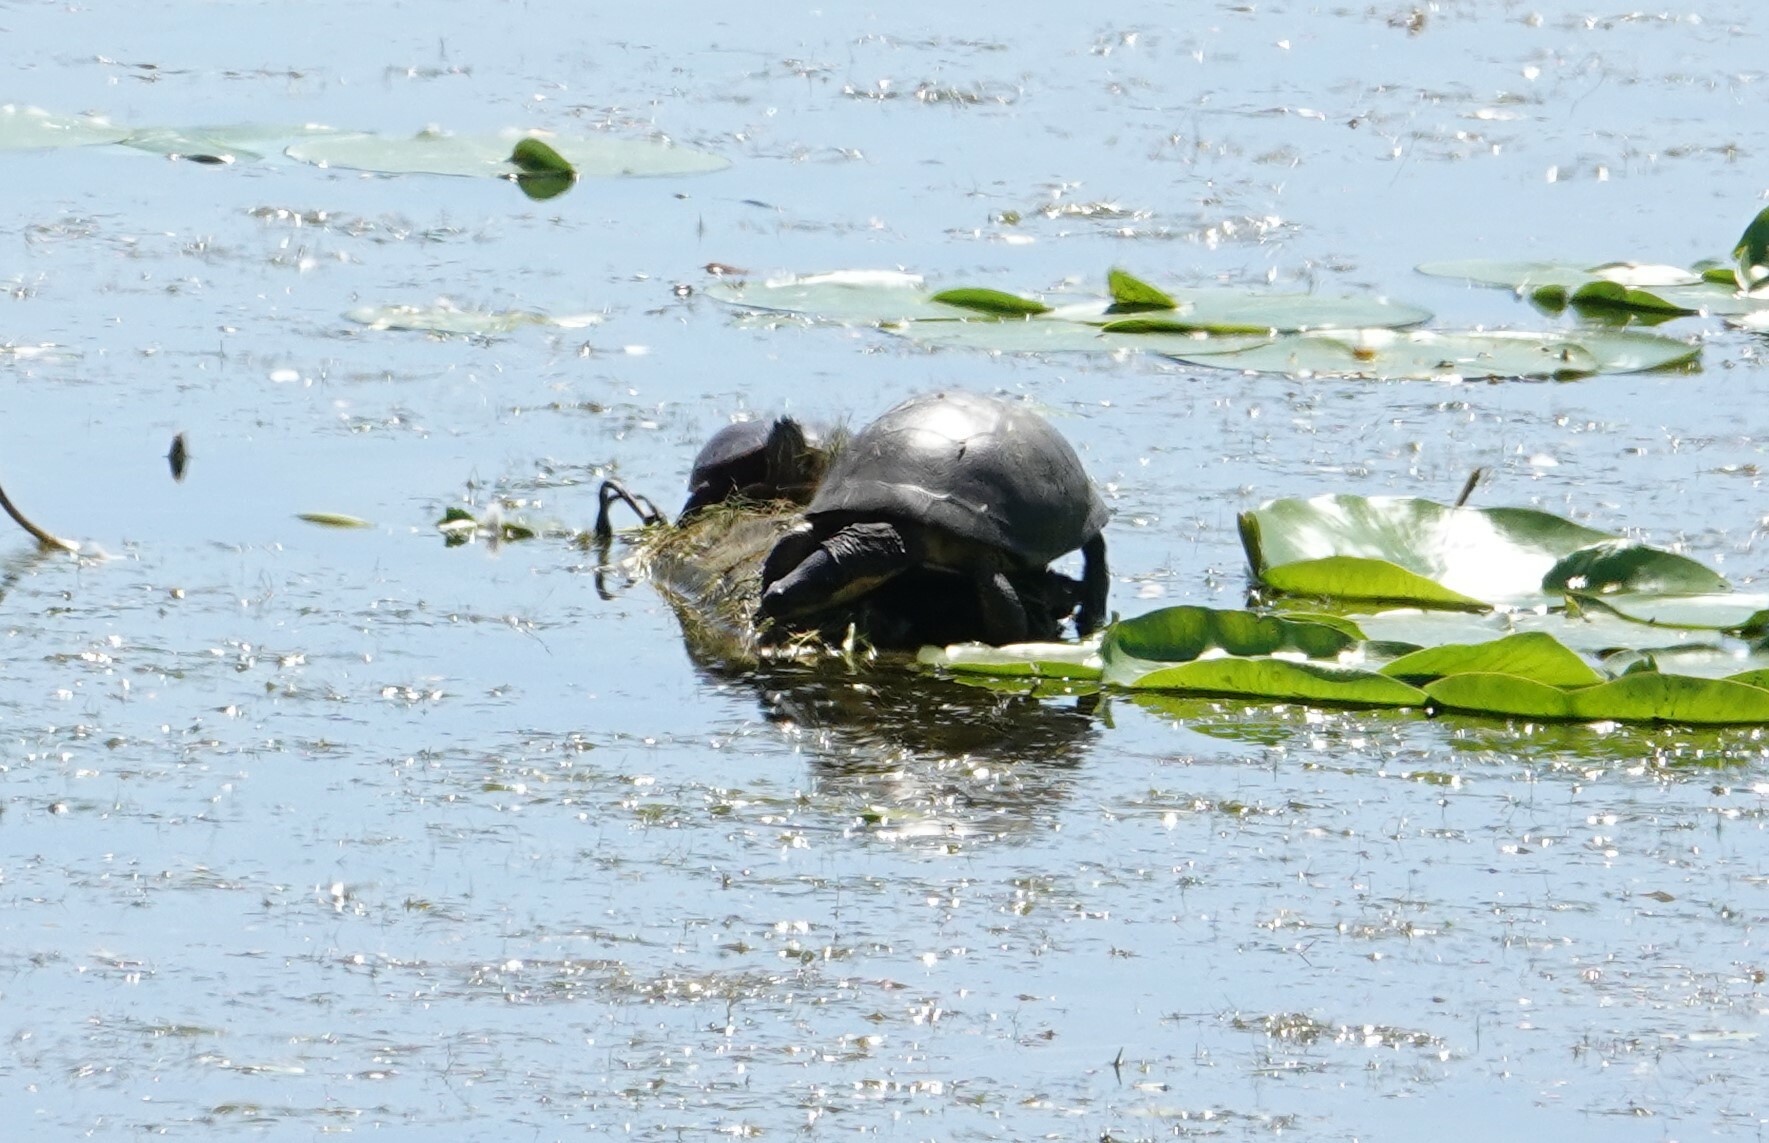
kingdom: Animalia
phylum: Chordata
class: Testudines
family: Emydidae
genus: Emys
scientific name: Emys blandingii
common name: Blanding's turtle
